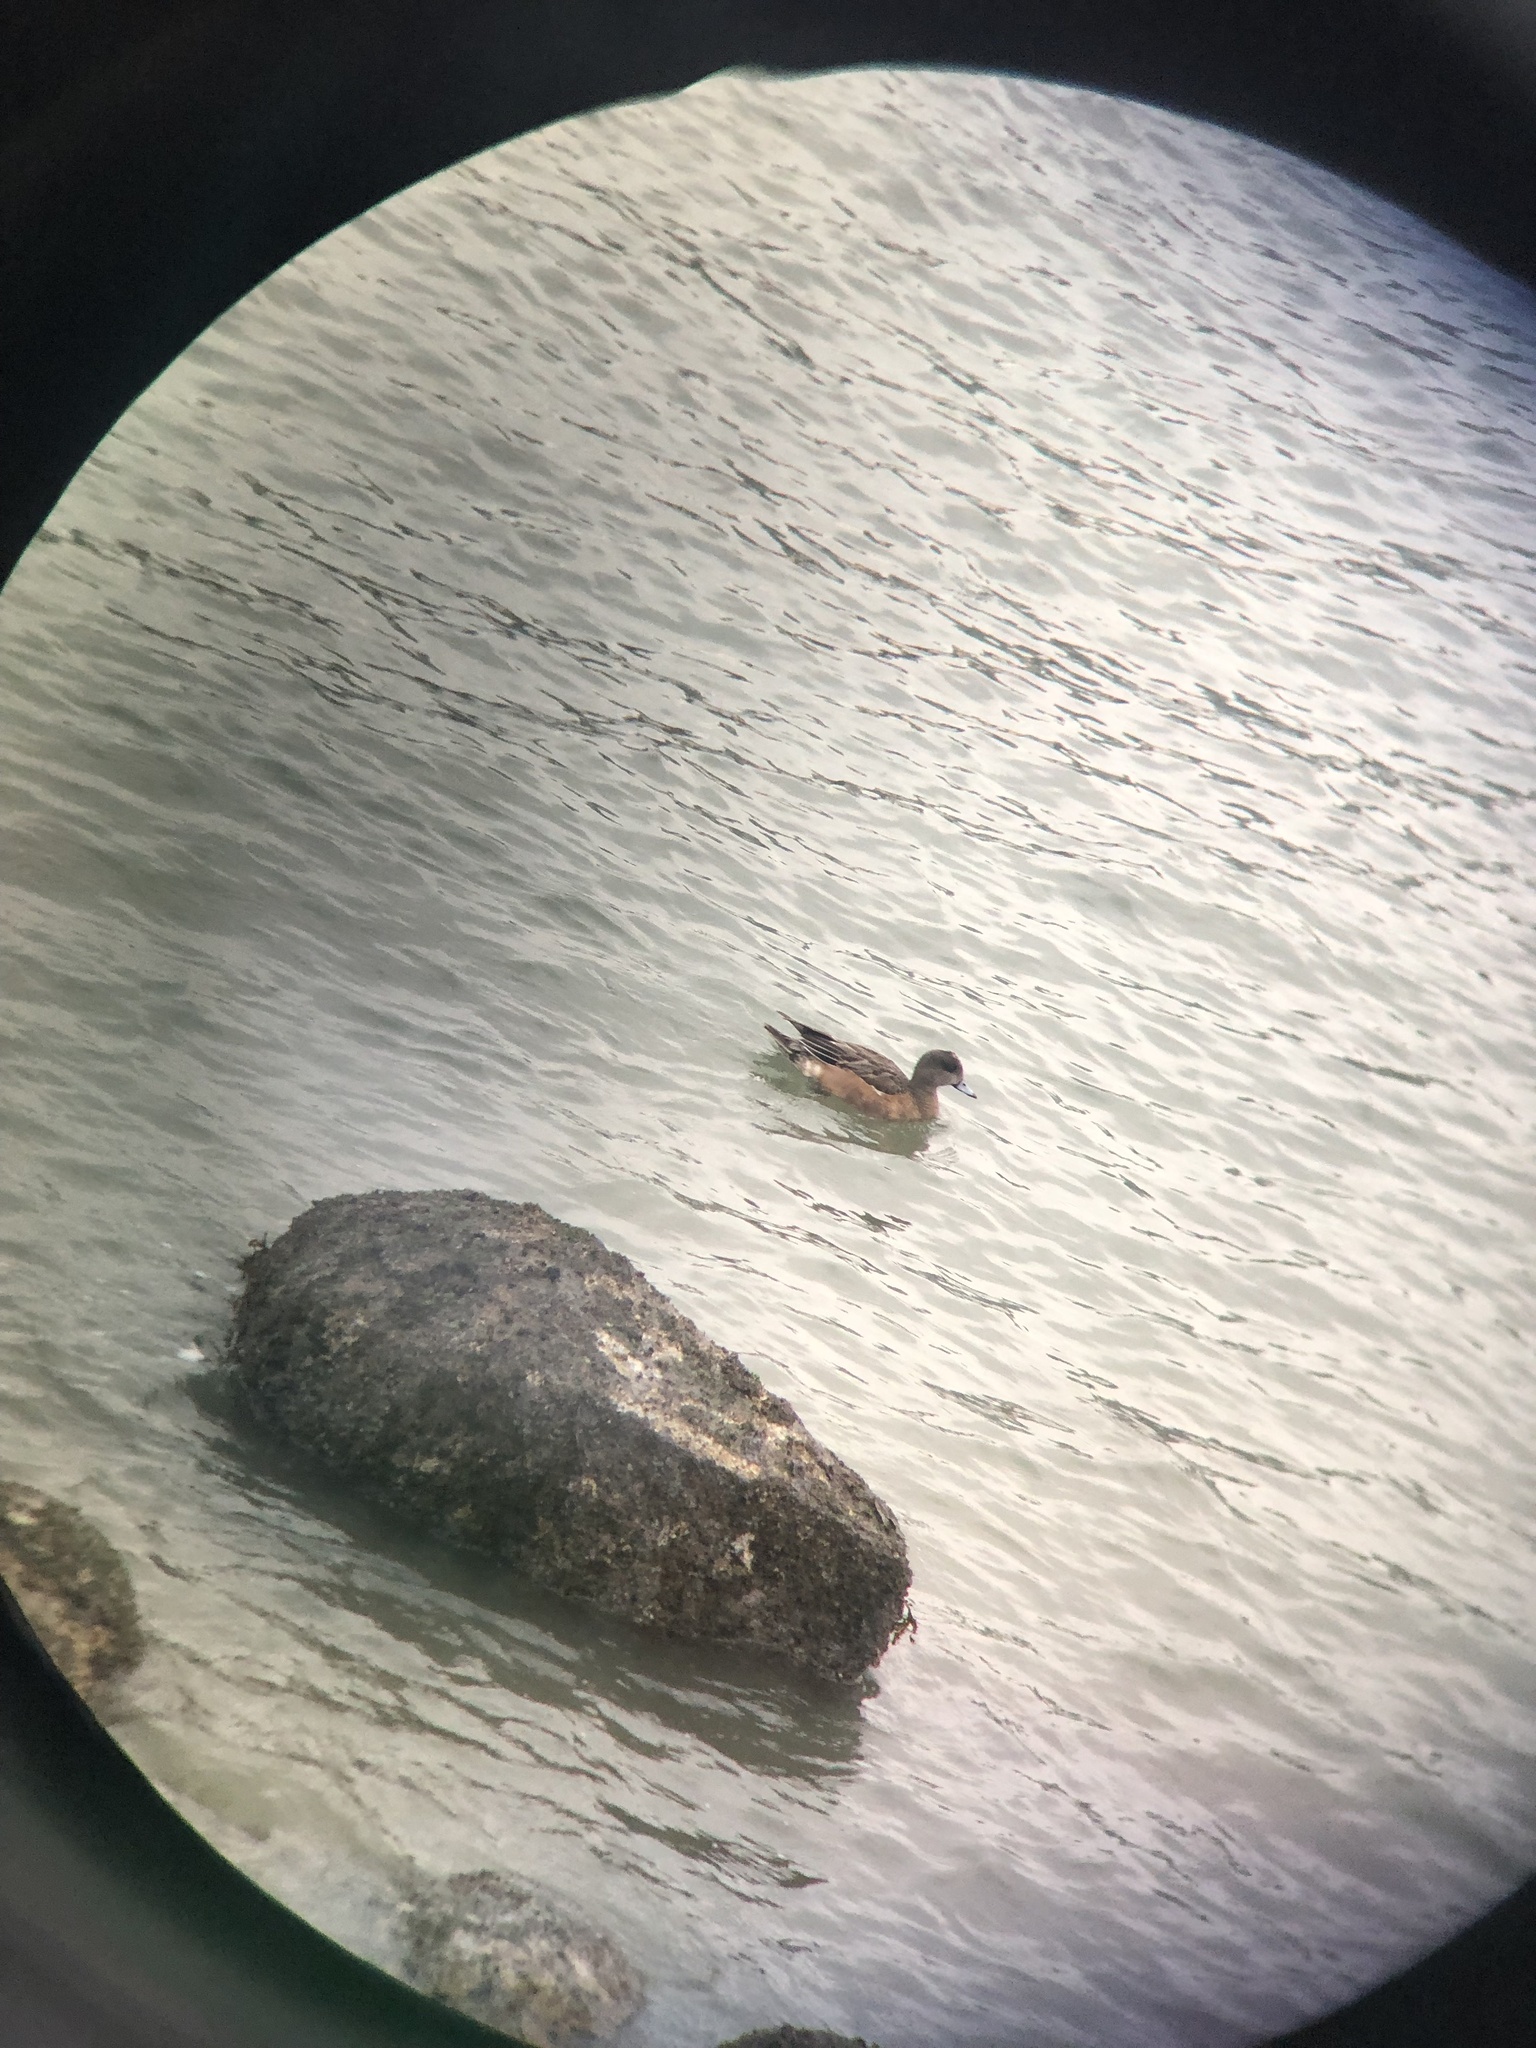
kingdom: Animalia
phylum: Chordata
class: Aves
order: Anseriformes
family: Anatidae
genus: Mareca
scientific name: Mareca americana
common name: American wigeon
